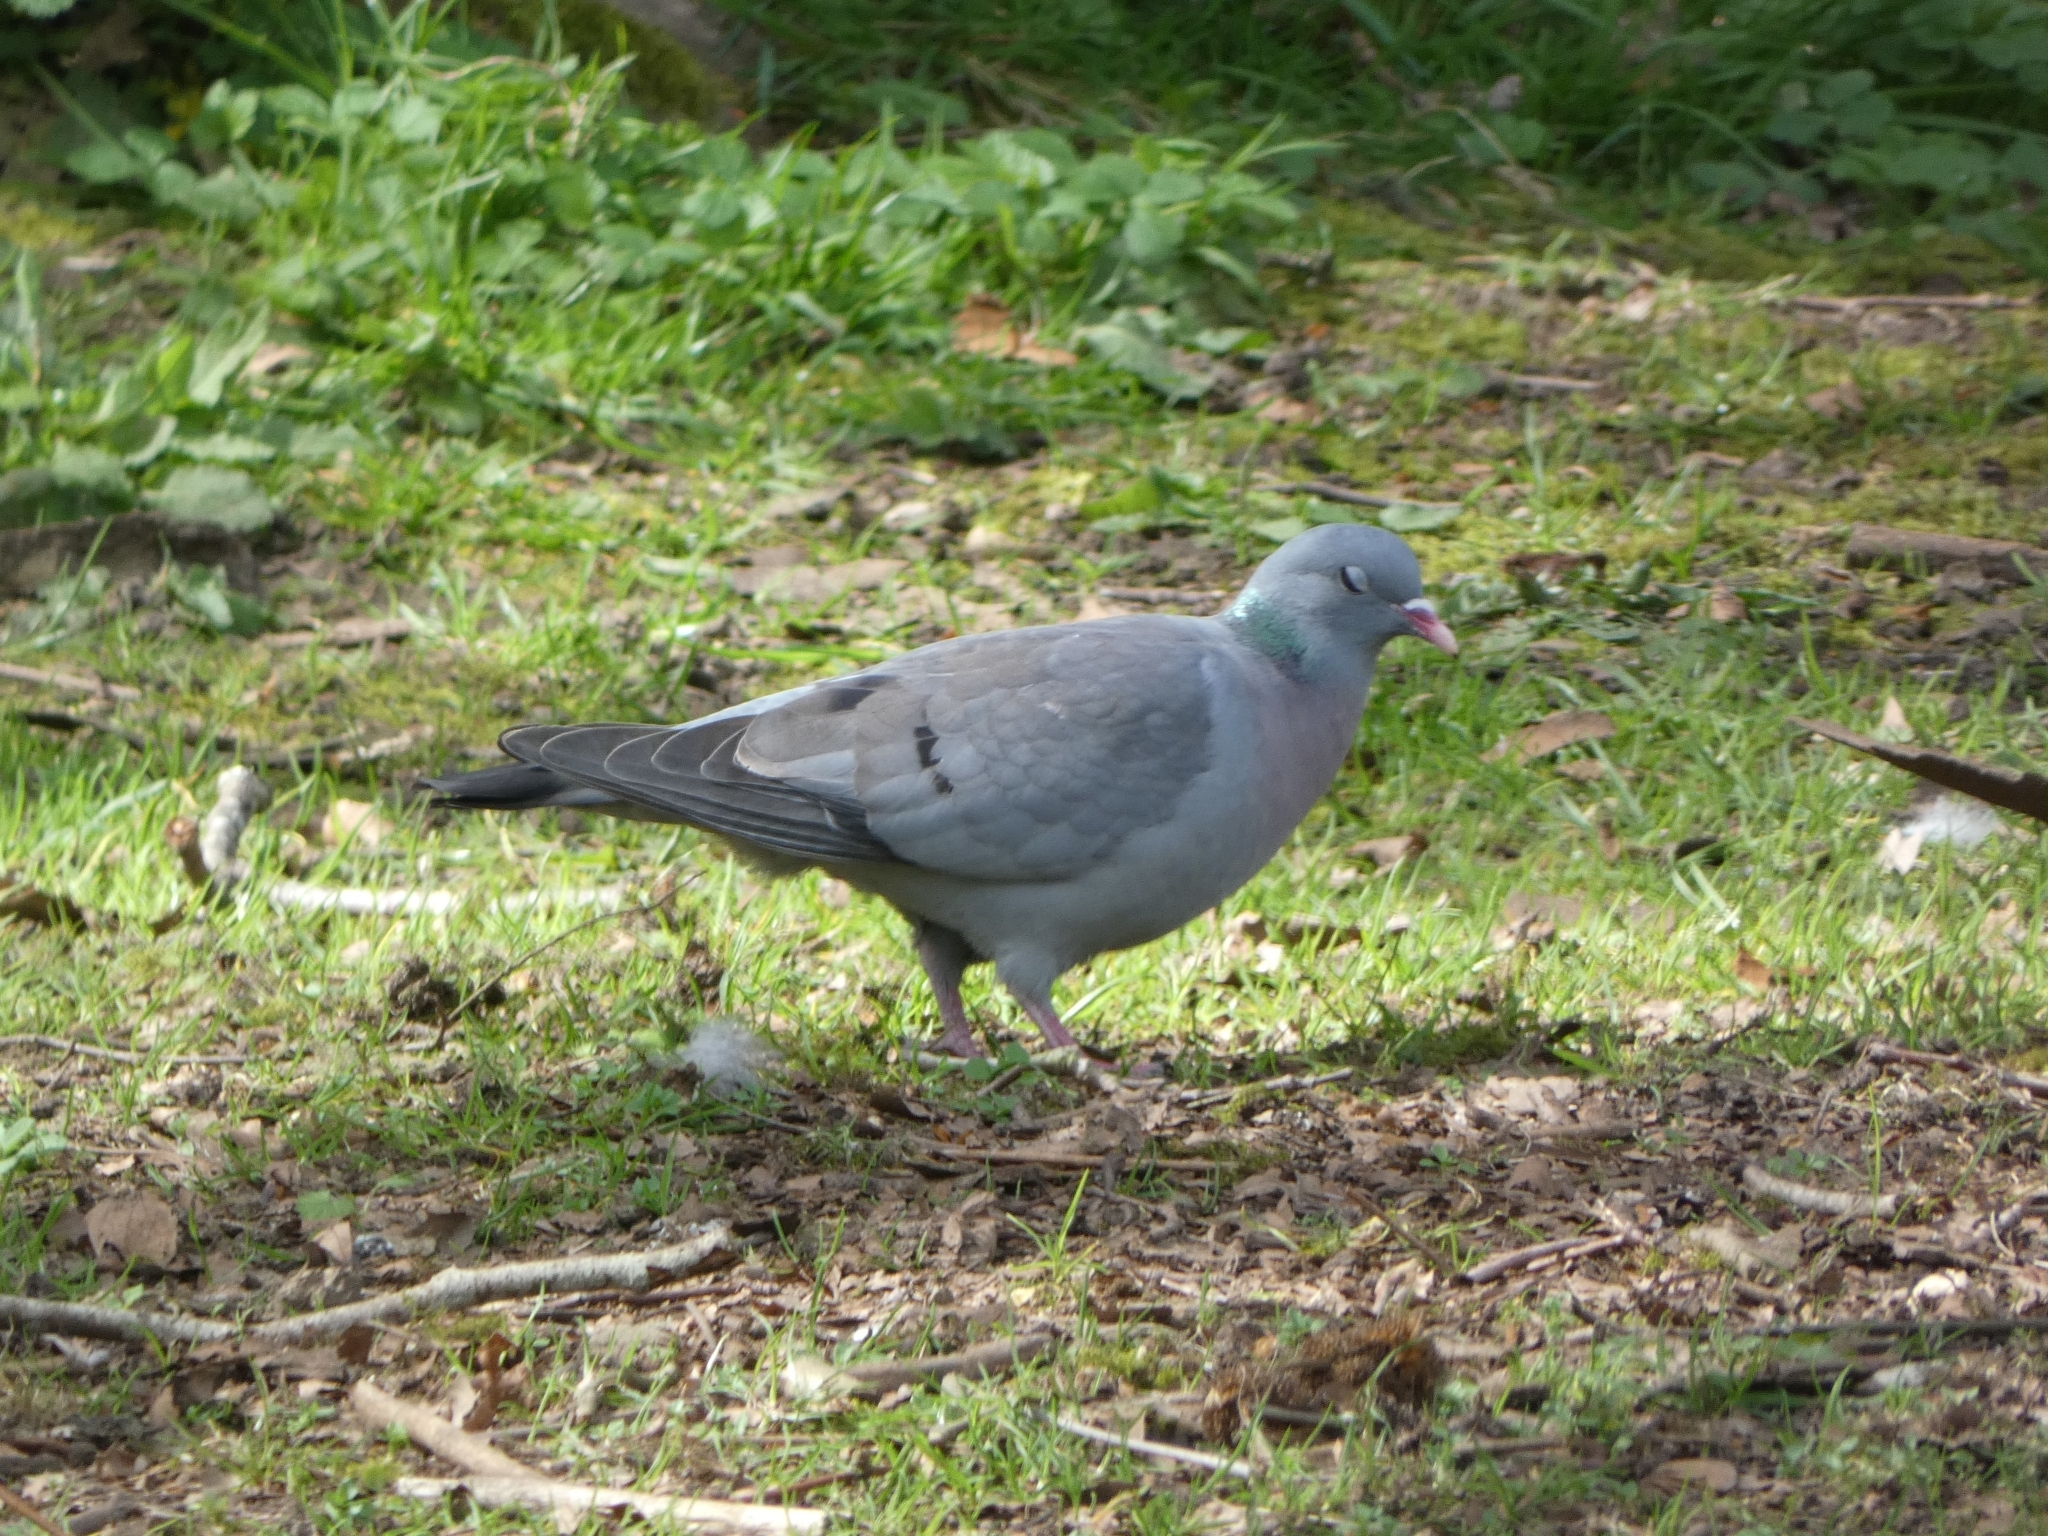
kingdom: Animalia
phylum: Chordata
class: Aves
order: Columbiformes
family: Columbidae
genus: Columba
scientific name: Columba oenas
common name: Stock dove
